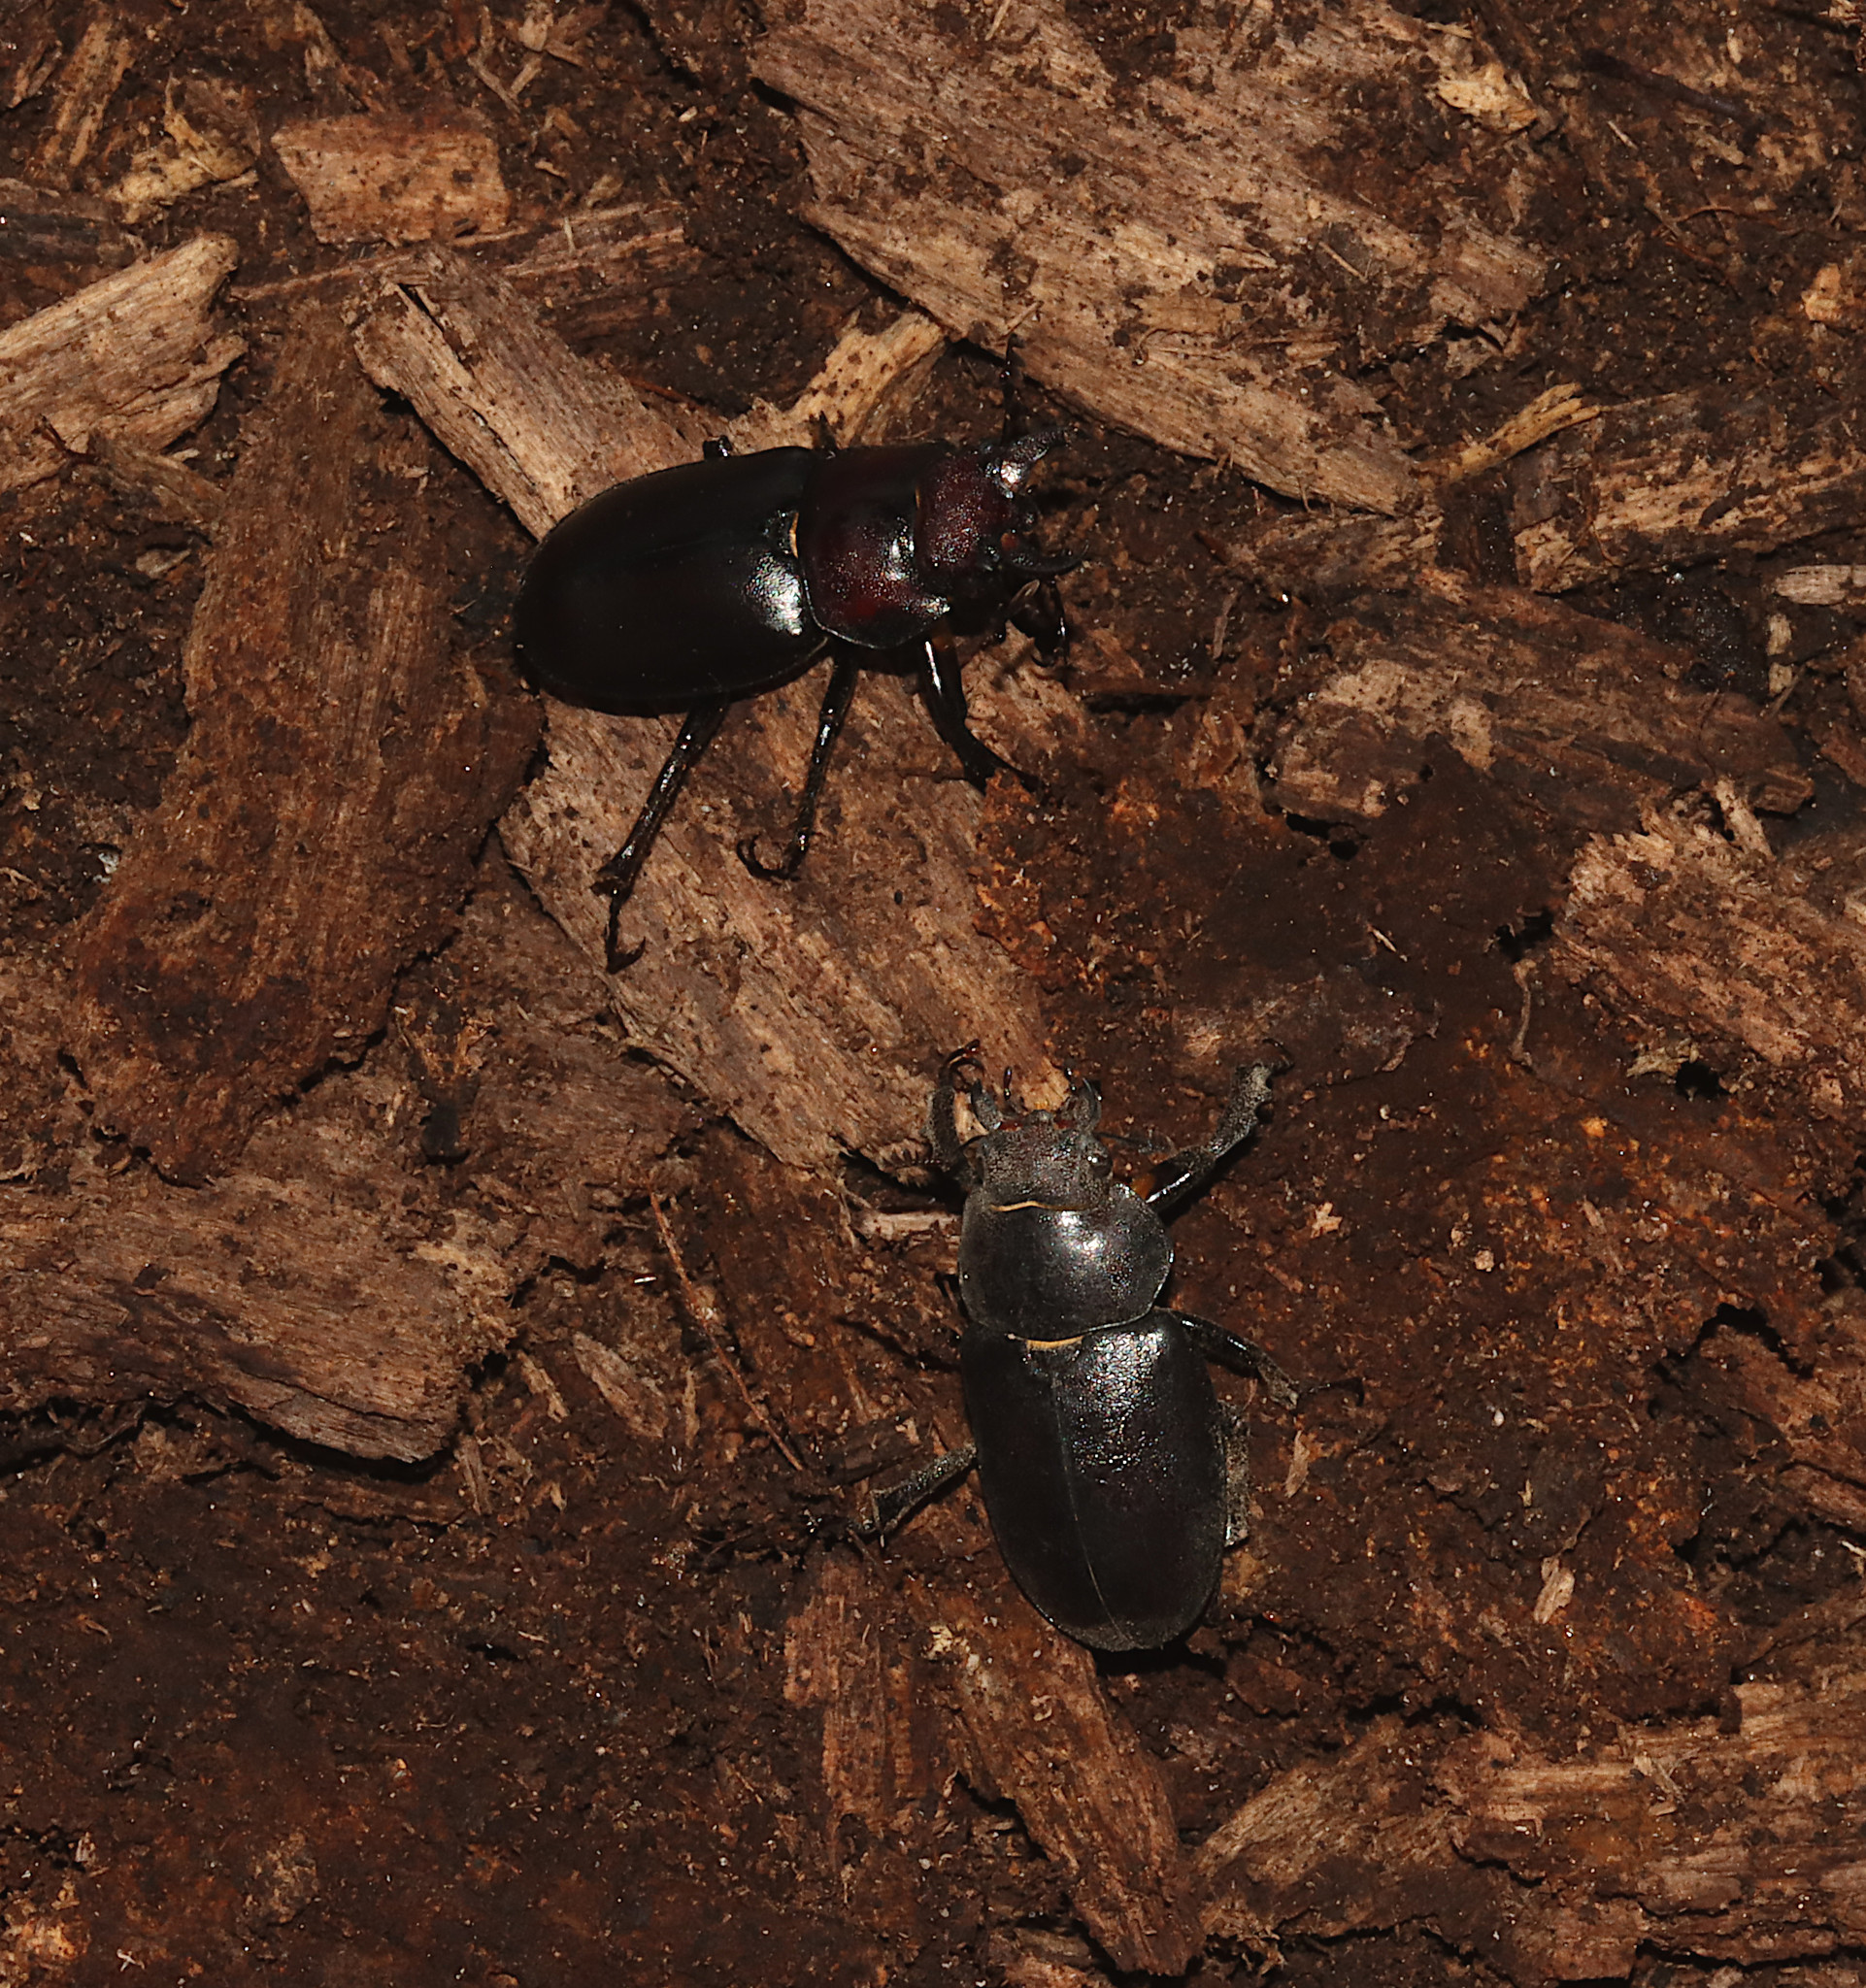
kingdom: Animalia
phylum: Arthropoda
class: Insecta
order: Coleoptera
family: Lucanidae
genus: Lucanus
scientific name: Lucanus placidus
